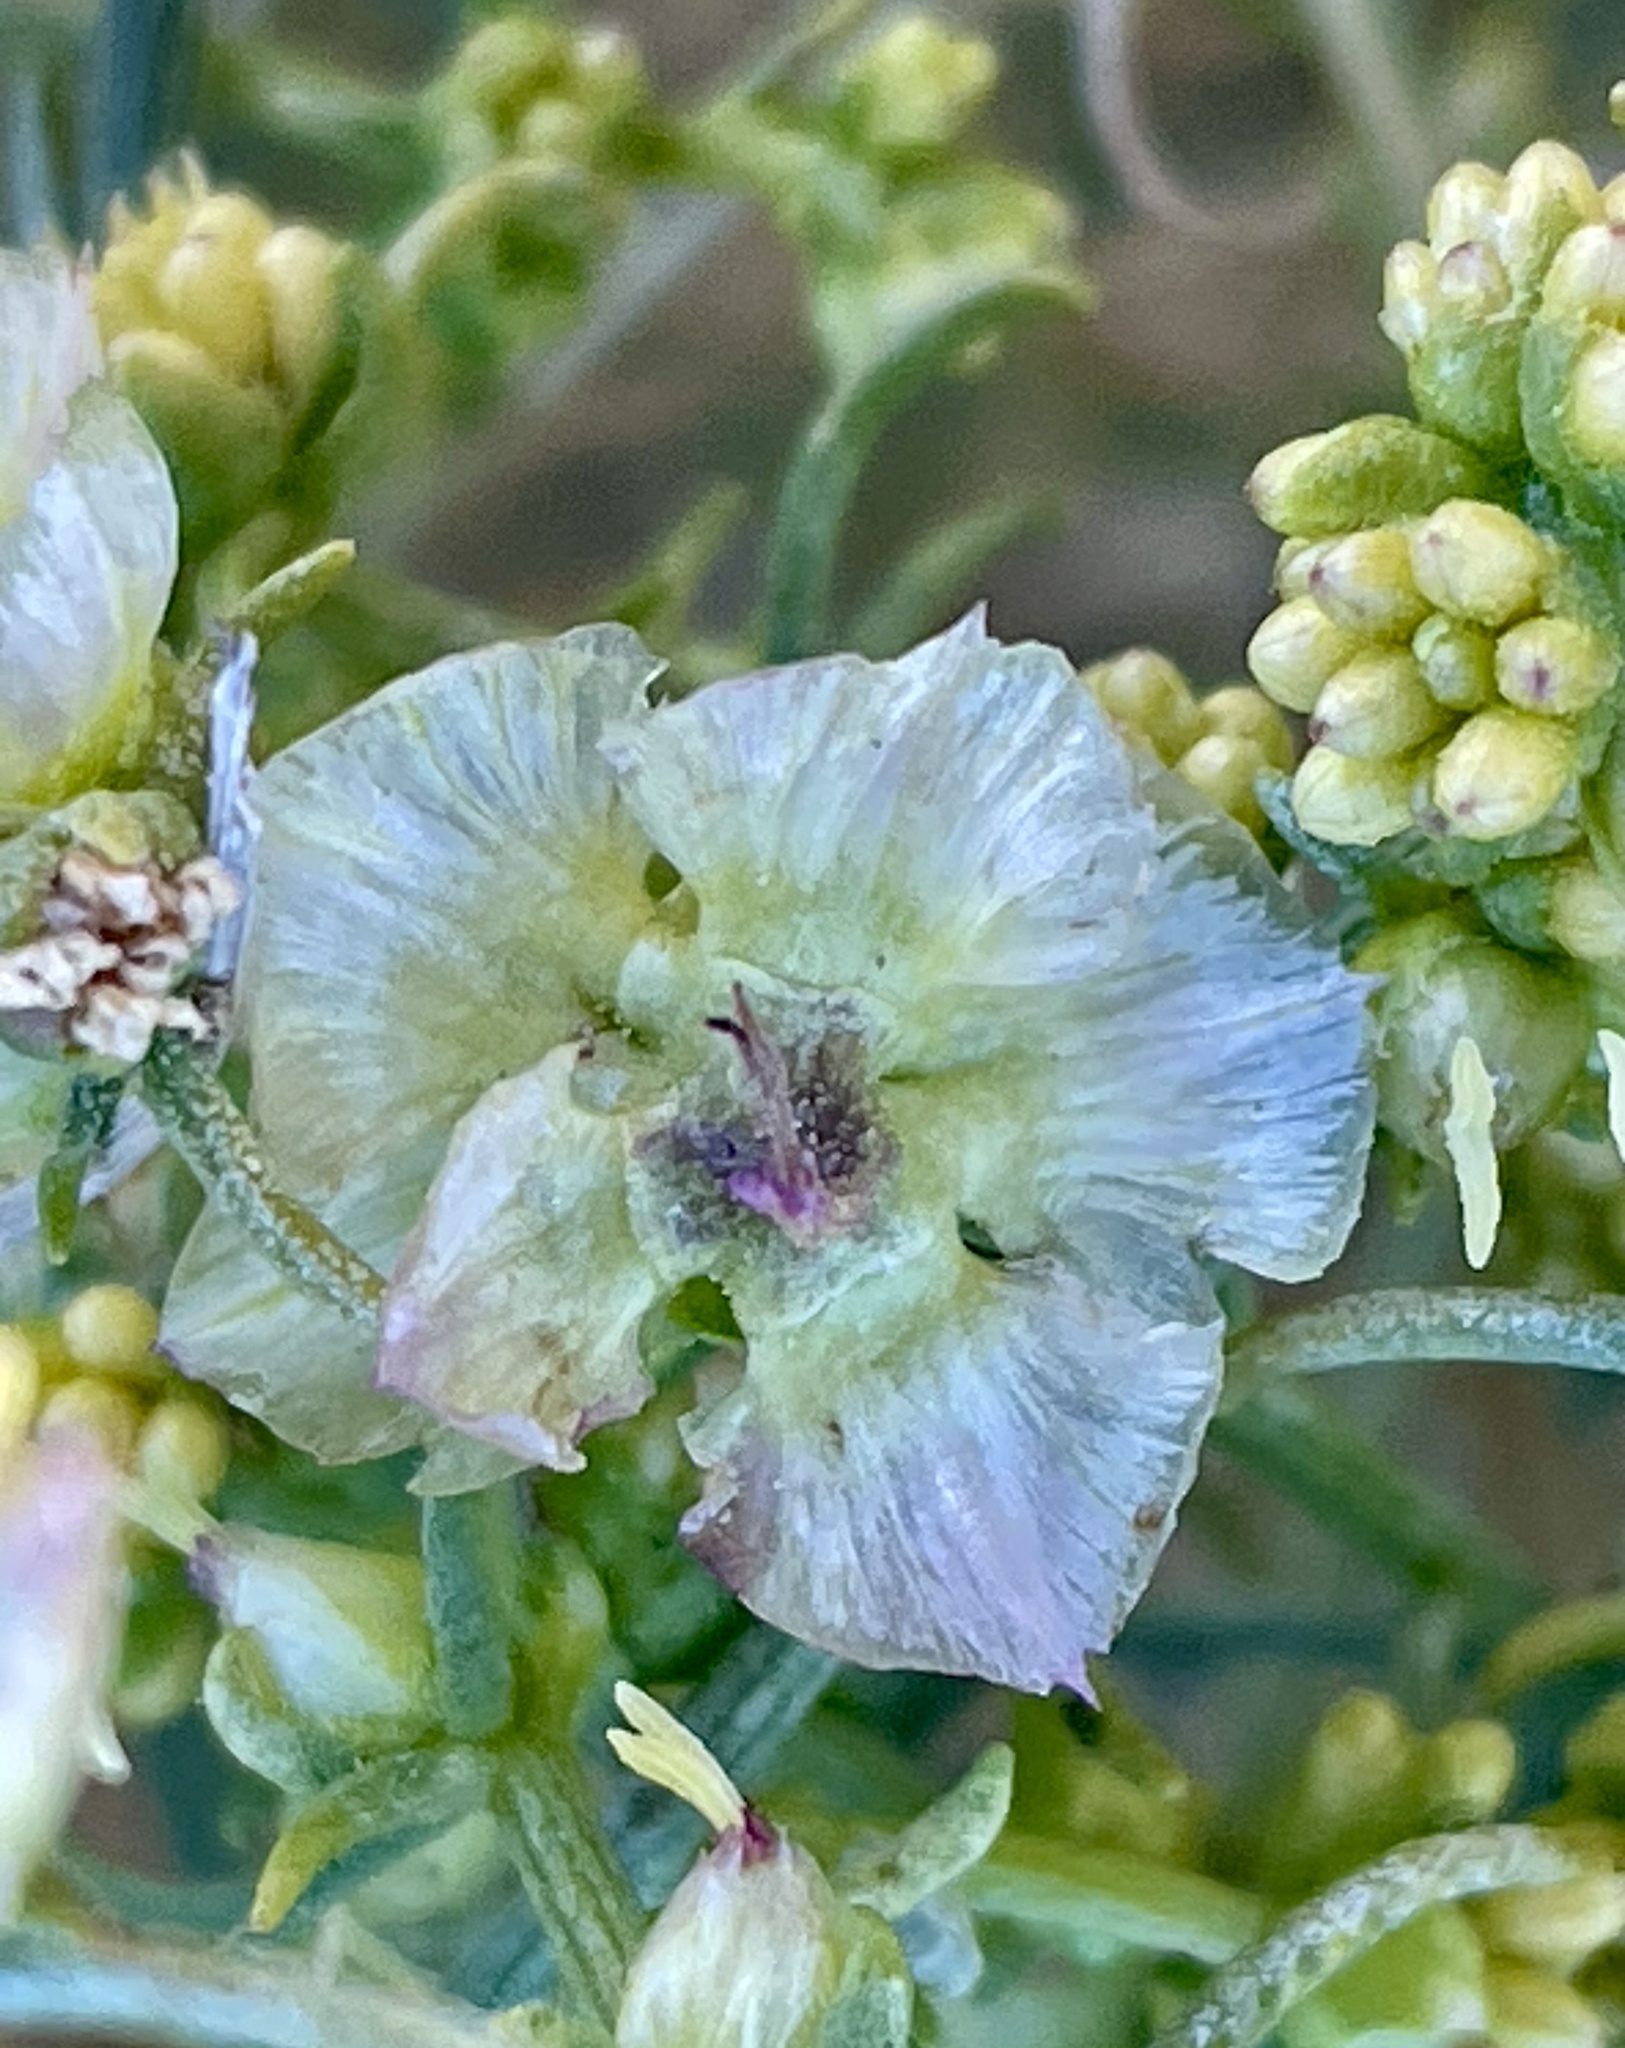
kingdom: Plantae
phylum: Tracheophyta
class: Magnoliopsida
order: Asterales
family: Asteraceae
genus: Ambrosia
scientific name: Ambrosia salsola
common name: Burrobrush
